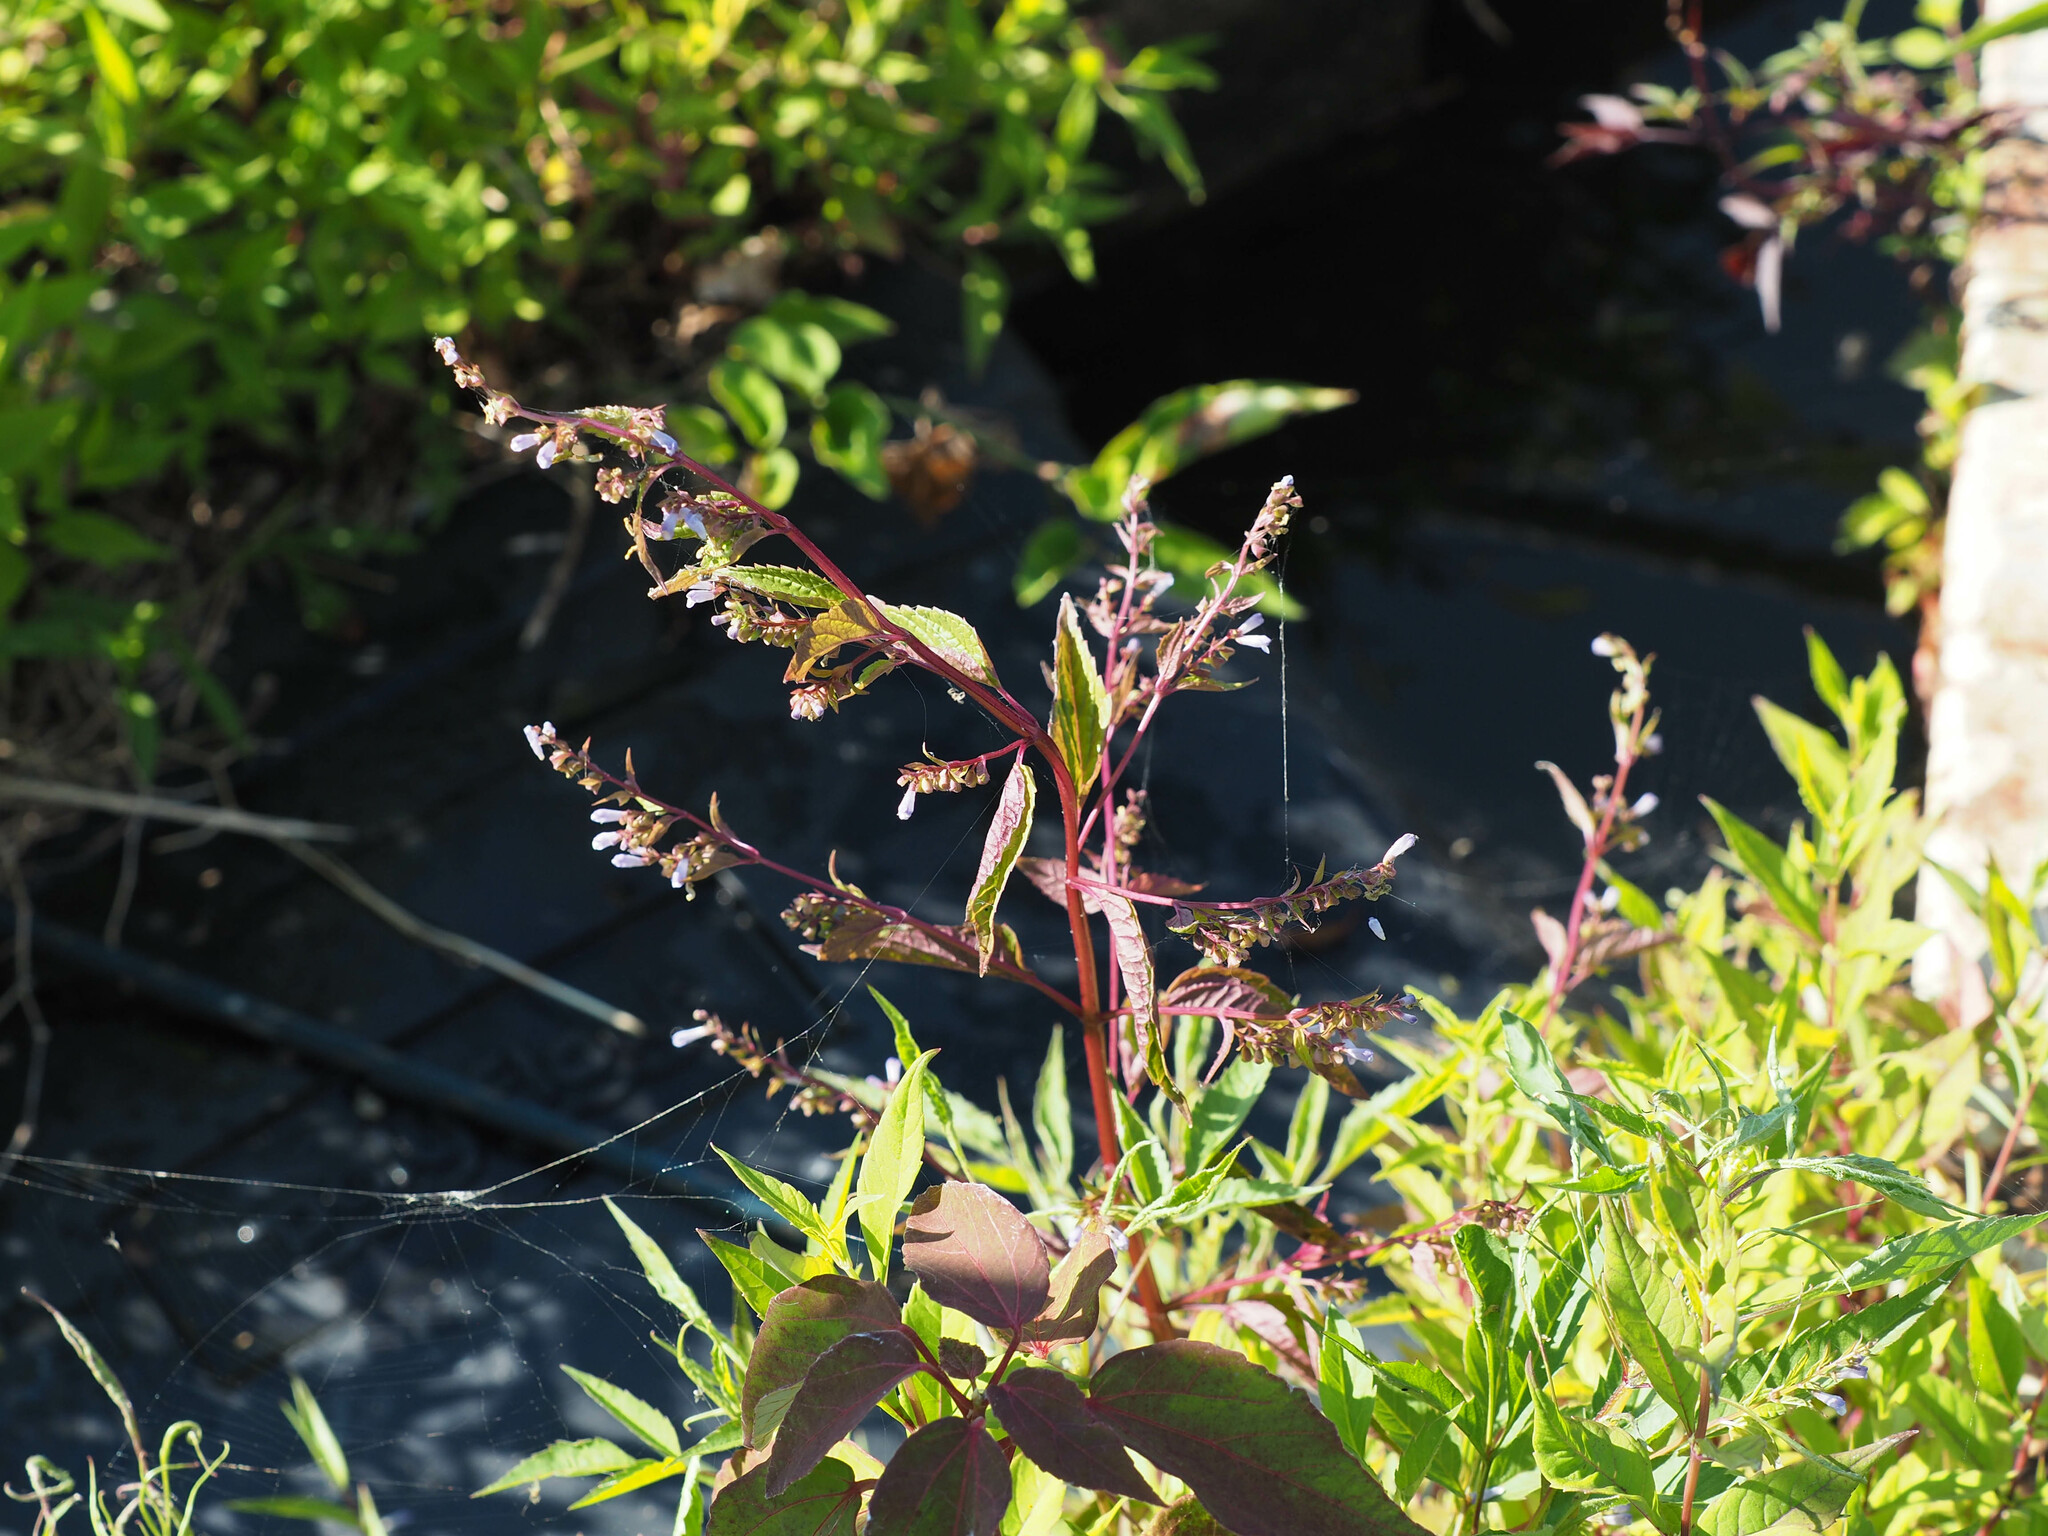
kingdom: Plantae
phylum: Tracheophyta
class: Magnoliopsida
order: Lamiales
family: Lamiaceae
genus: Scutellaria
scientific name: Scutellaria lateriflora
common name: Blue skullcap
